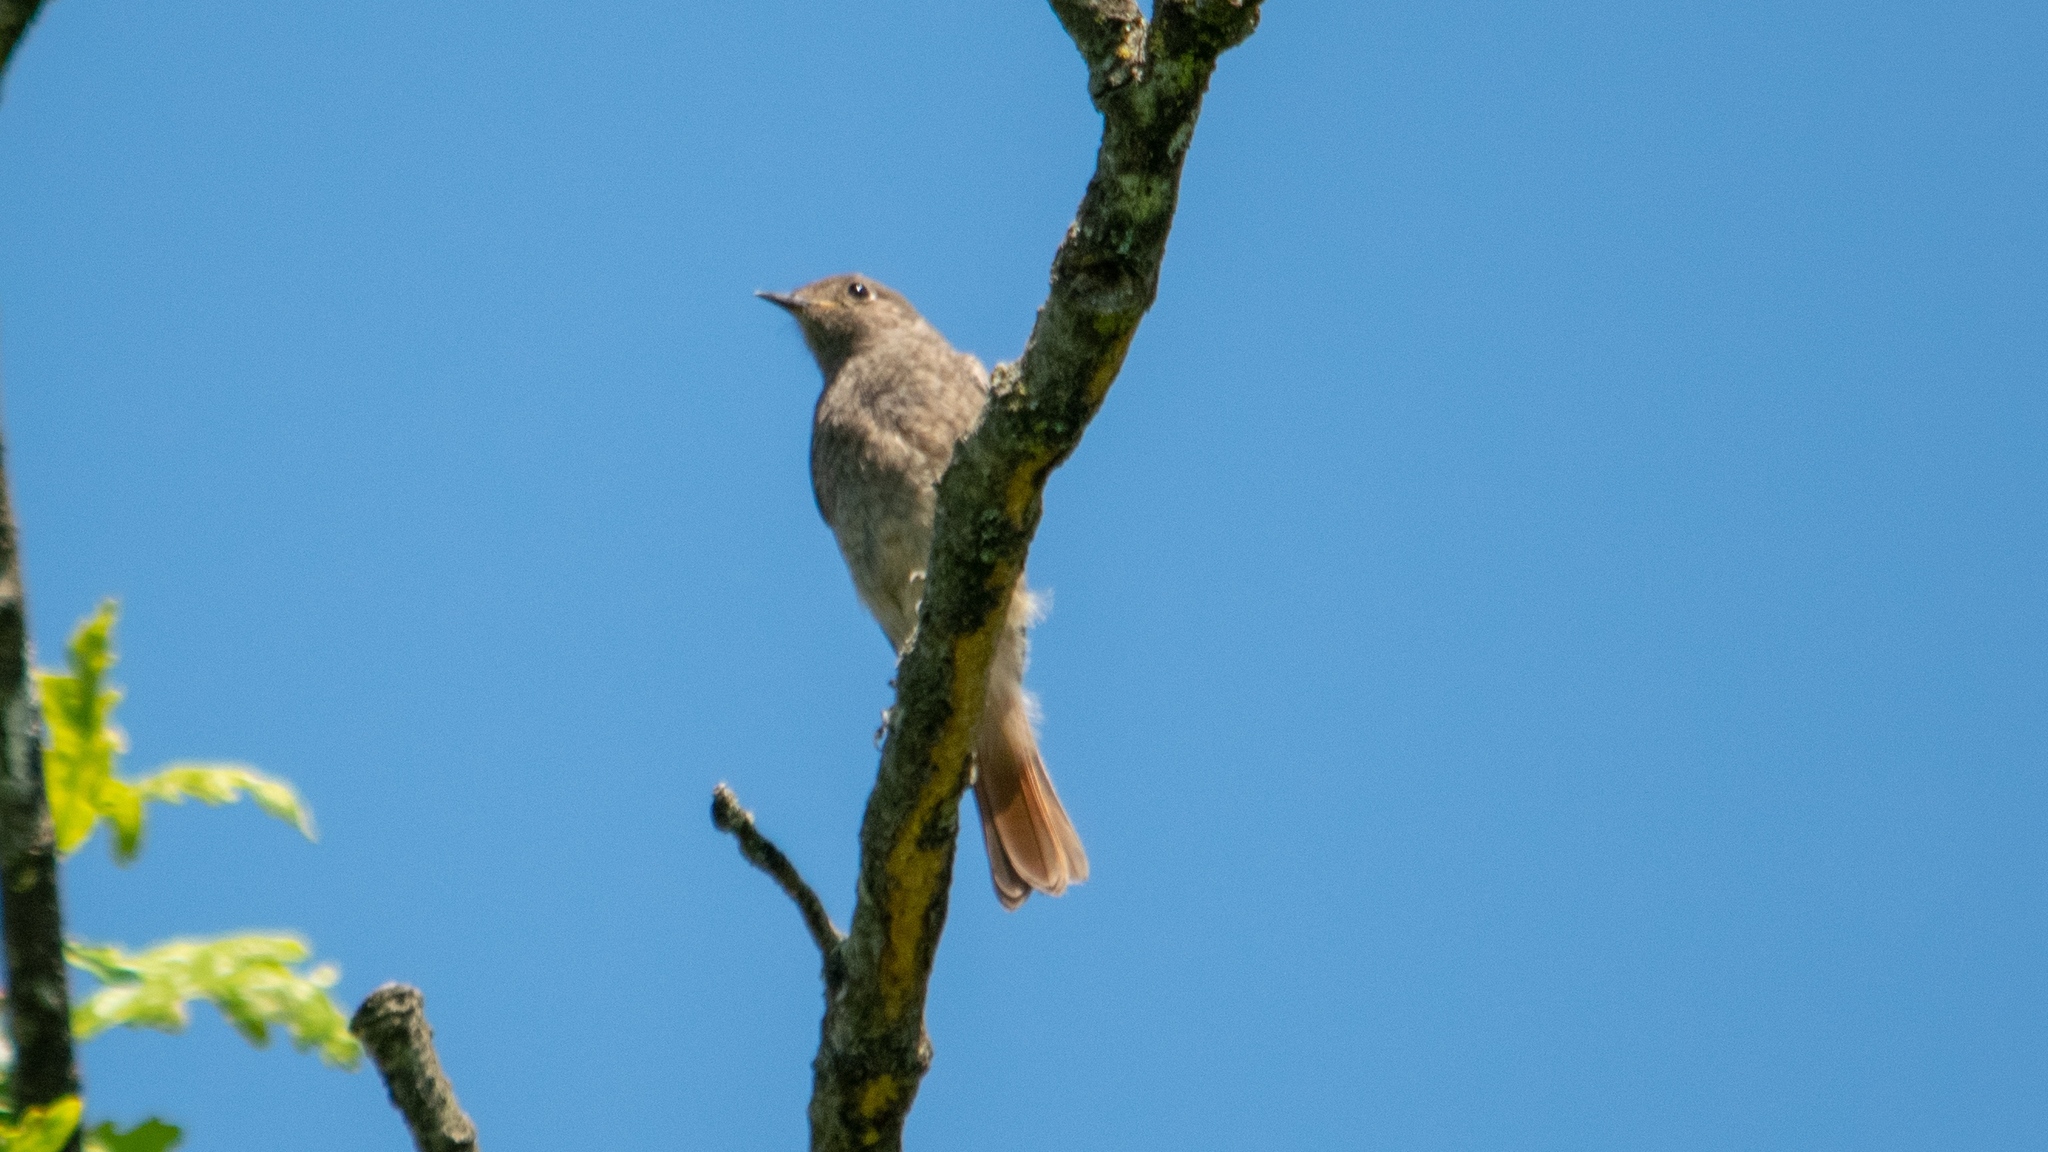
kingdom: Animalia
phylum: Chordata
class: Aves
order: Passeriformes
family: Muscicapidae
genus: Phoenicurus
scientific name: Phoenicurus ochruros
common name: Black redstart
